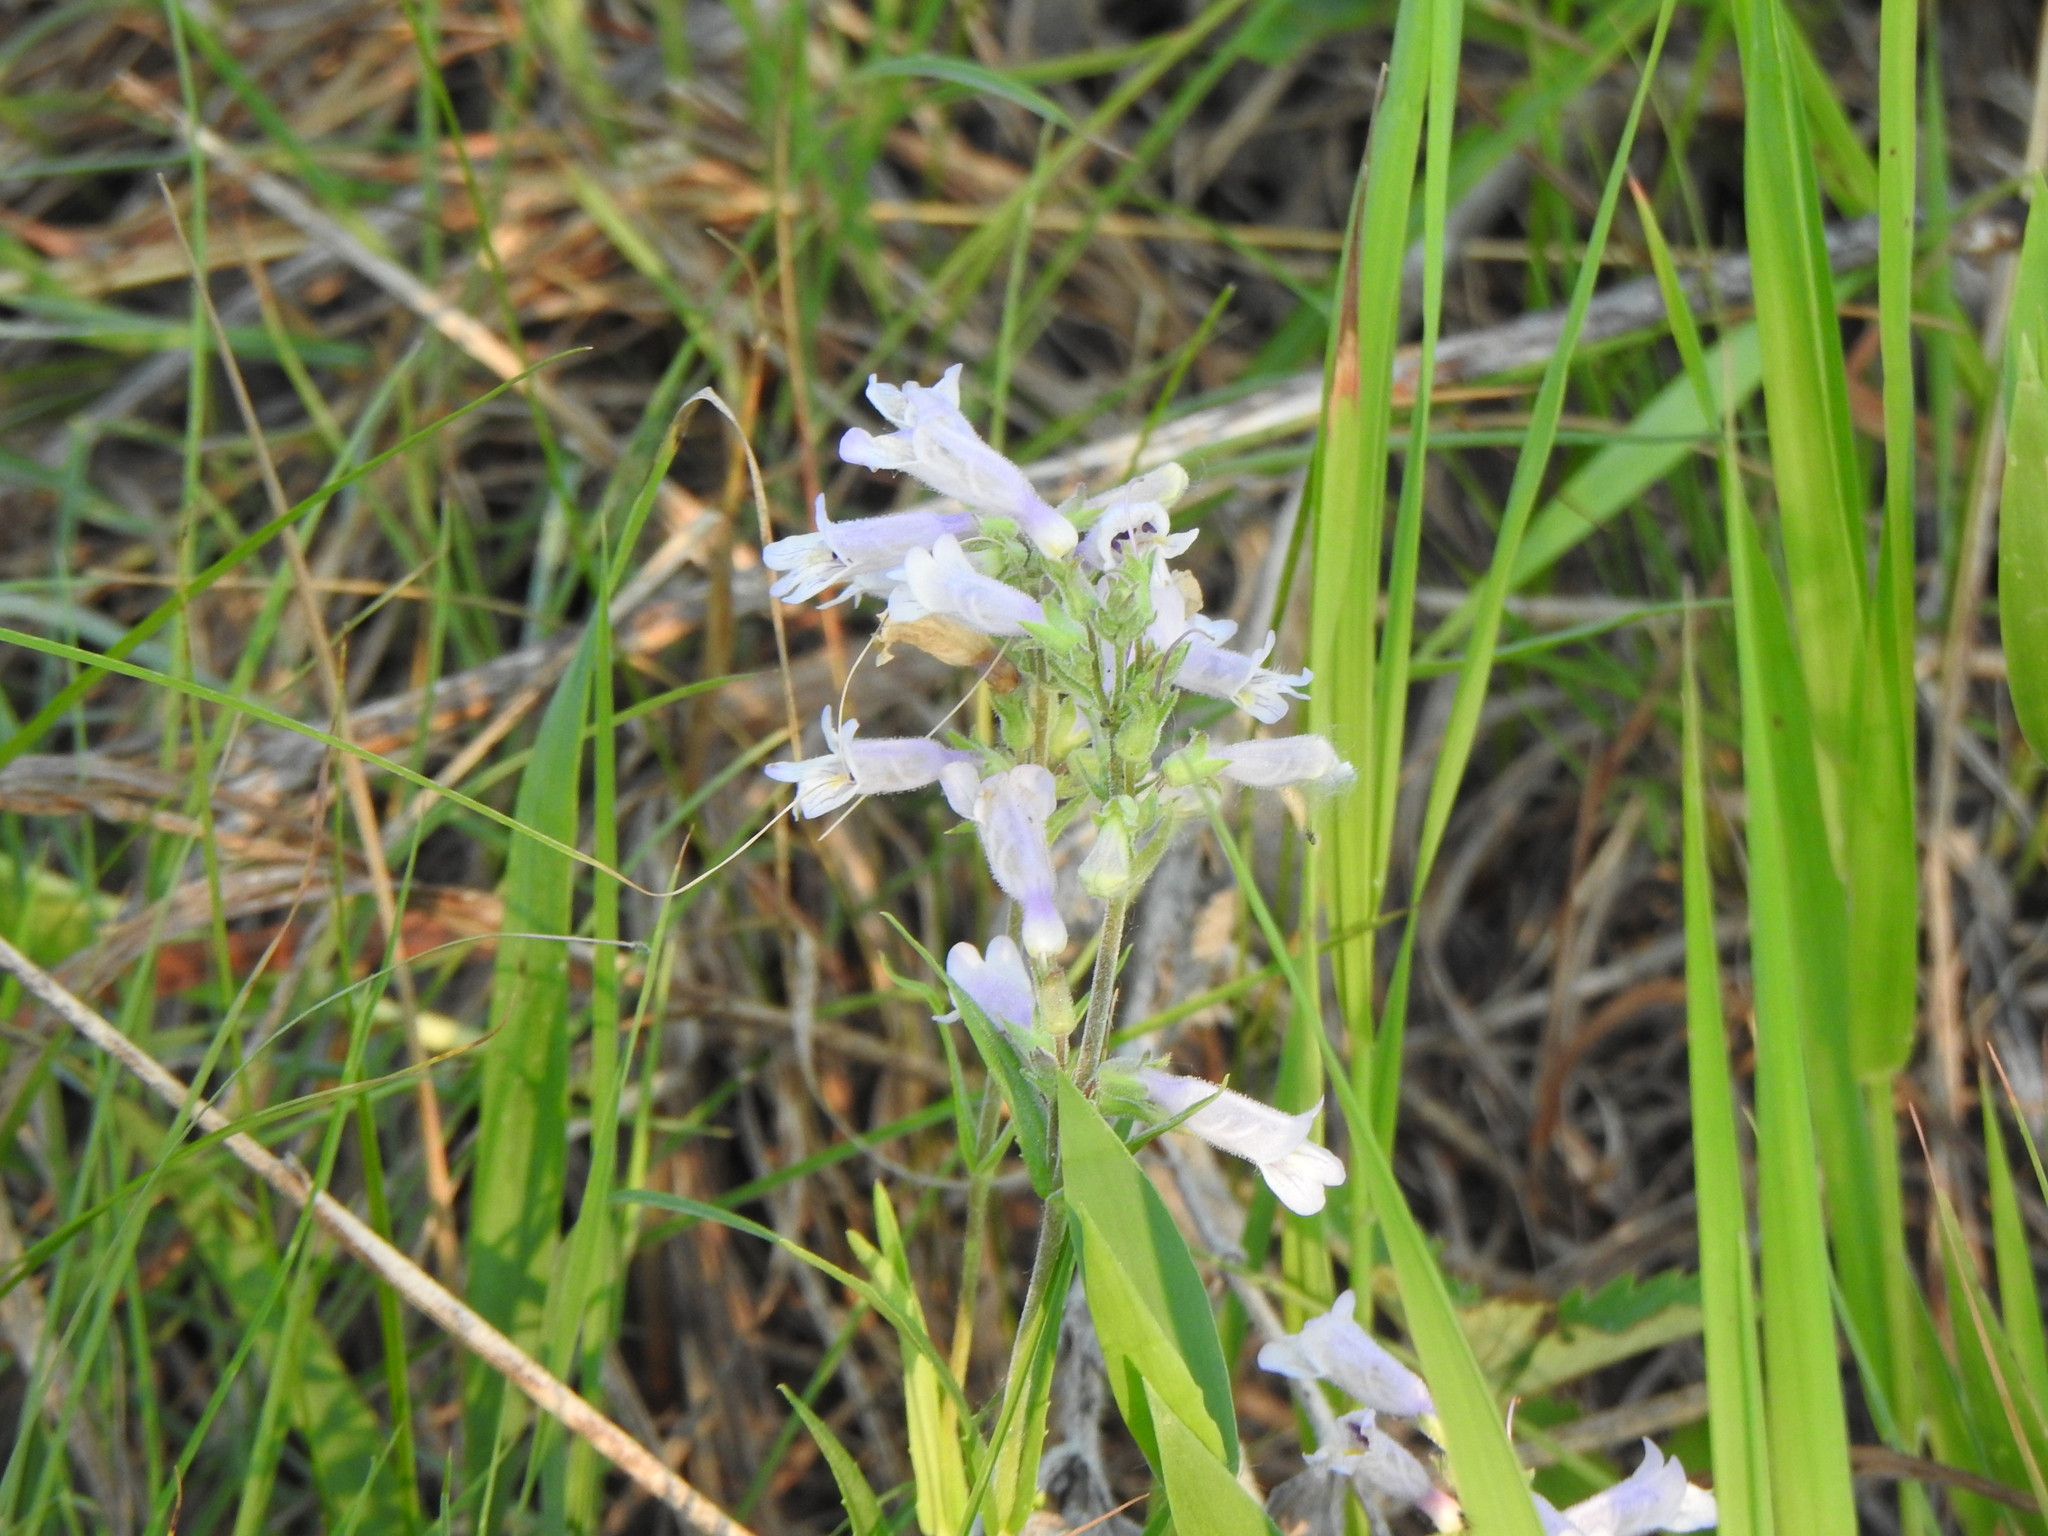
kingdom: Plantae
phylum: Tracheophyta
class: Magnoliopsida
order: Lamiales
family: Plantaginaceae
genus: Penstemon
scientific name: Penstemon gracilis
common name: Slender beardtongue
